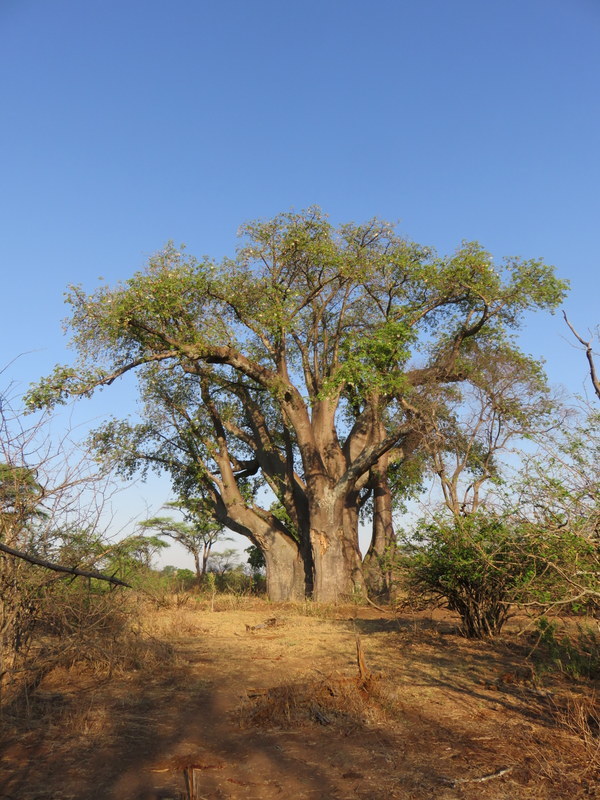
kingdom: Plantae
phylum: Tracheophyta
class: Magnoliopsida
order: Malvales
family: Malvaceae
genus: Adansonia
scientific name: Adansonia digitata
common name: Dead-rat-tree
